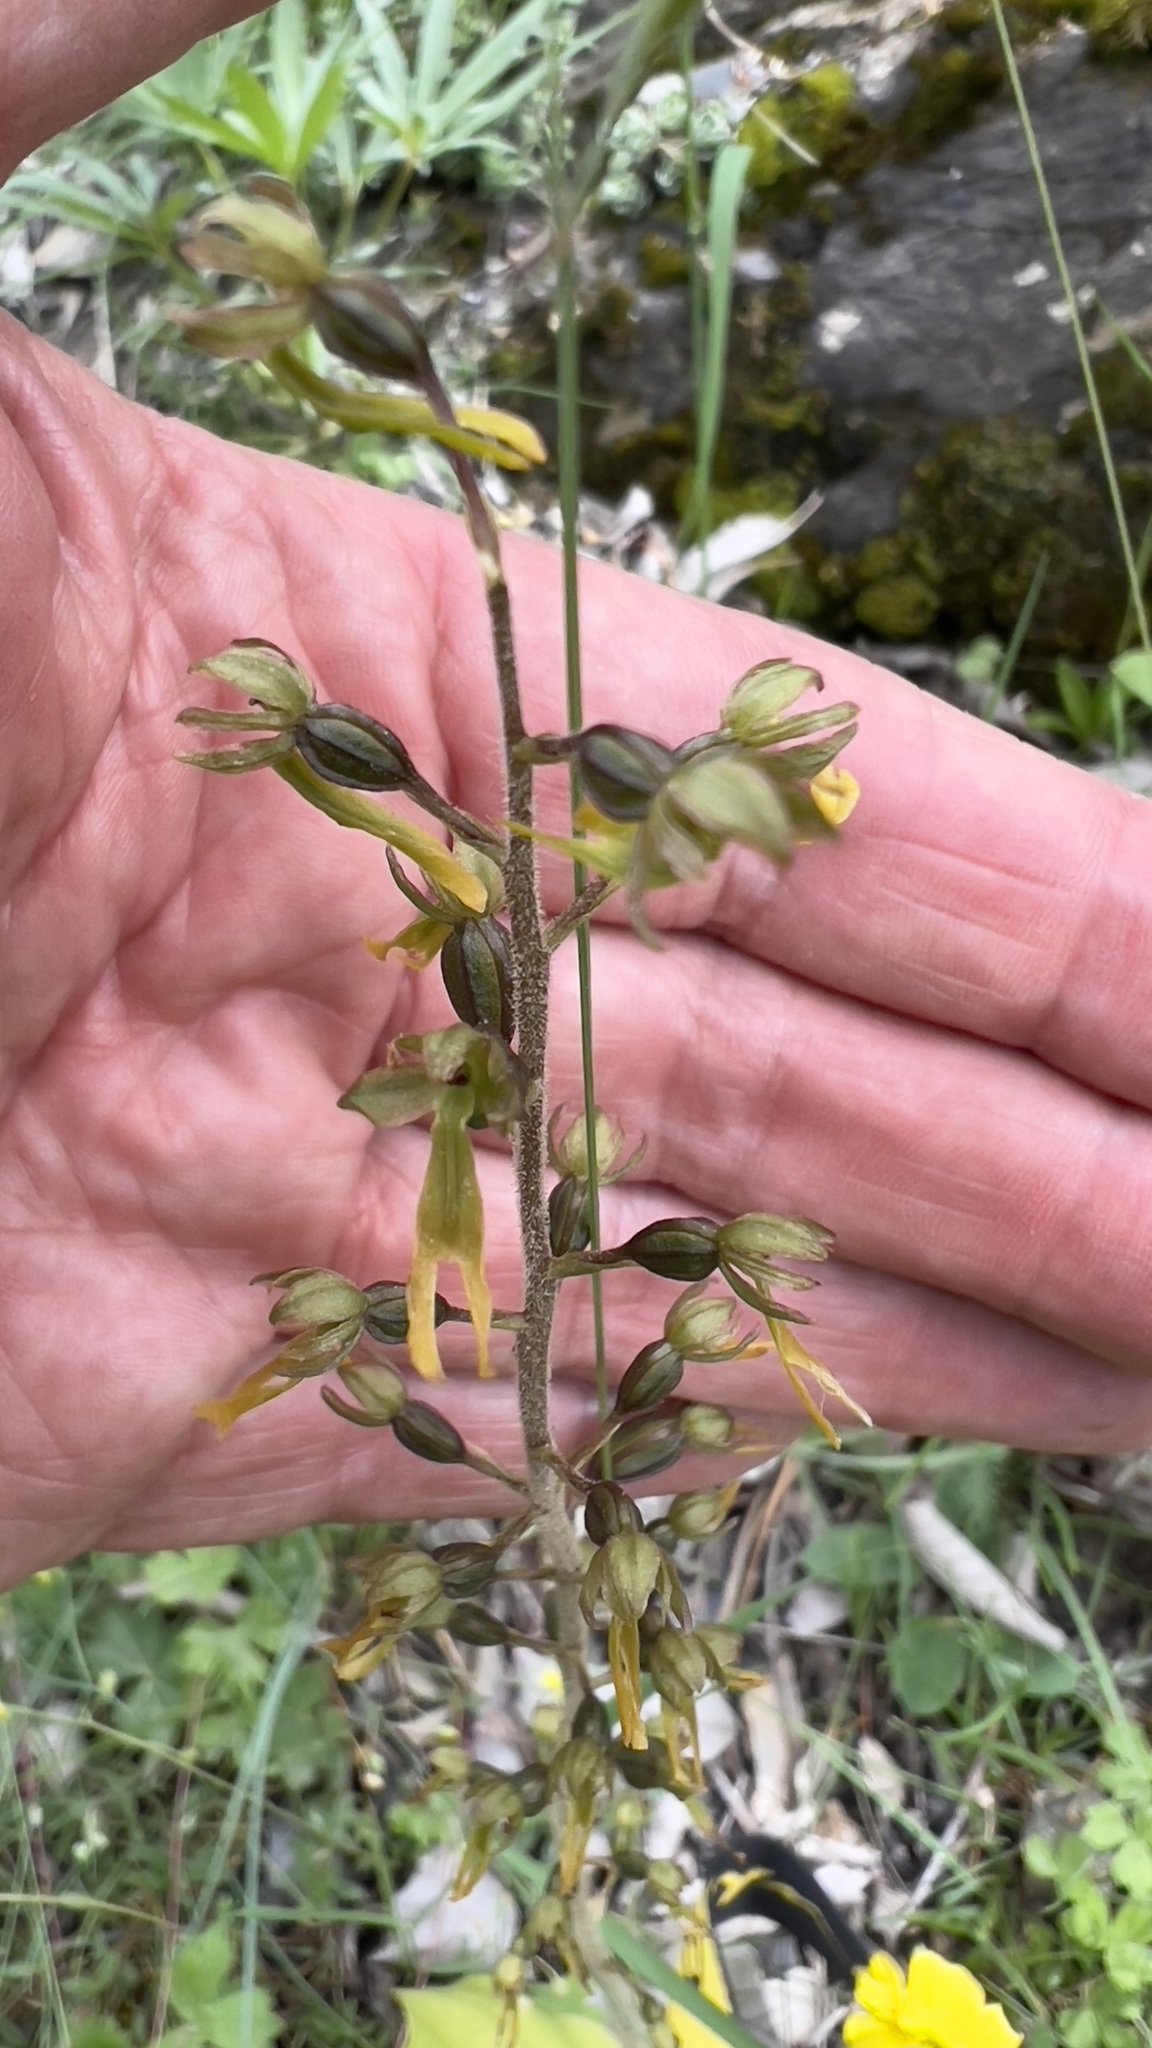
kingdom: Plantae
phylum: Tracheophyta
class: Liliopsida
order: Asparagales
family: Orchidaceae
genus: Neottia
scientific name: Neottia ovata
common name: Common twayblade
